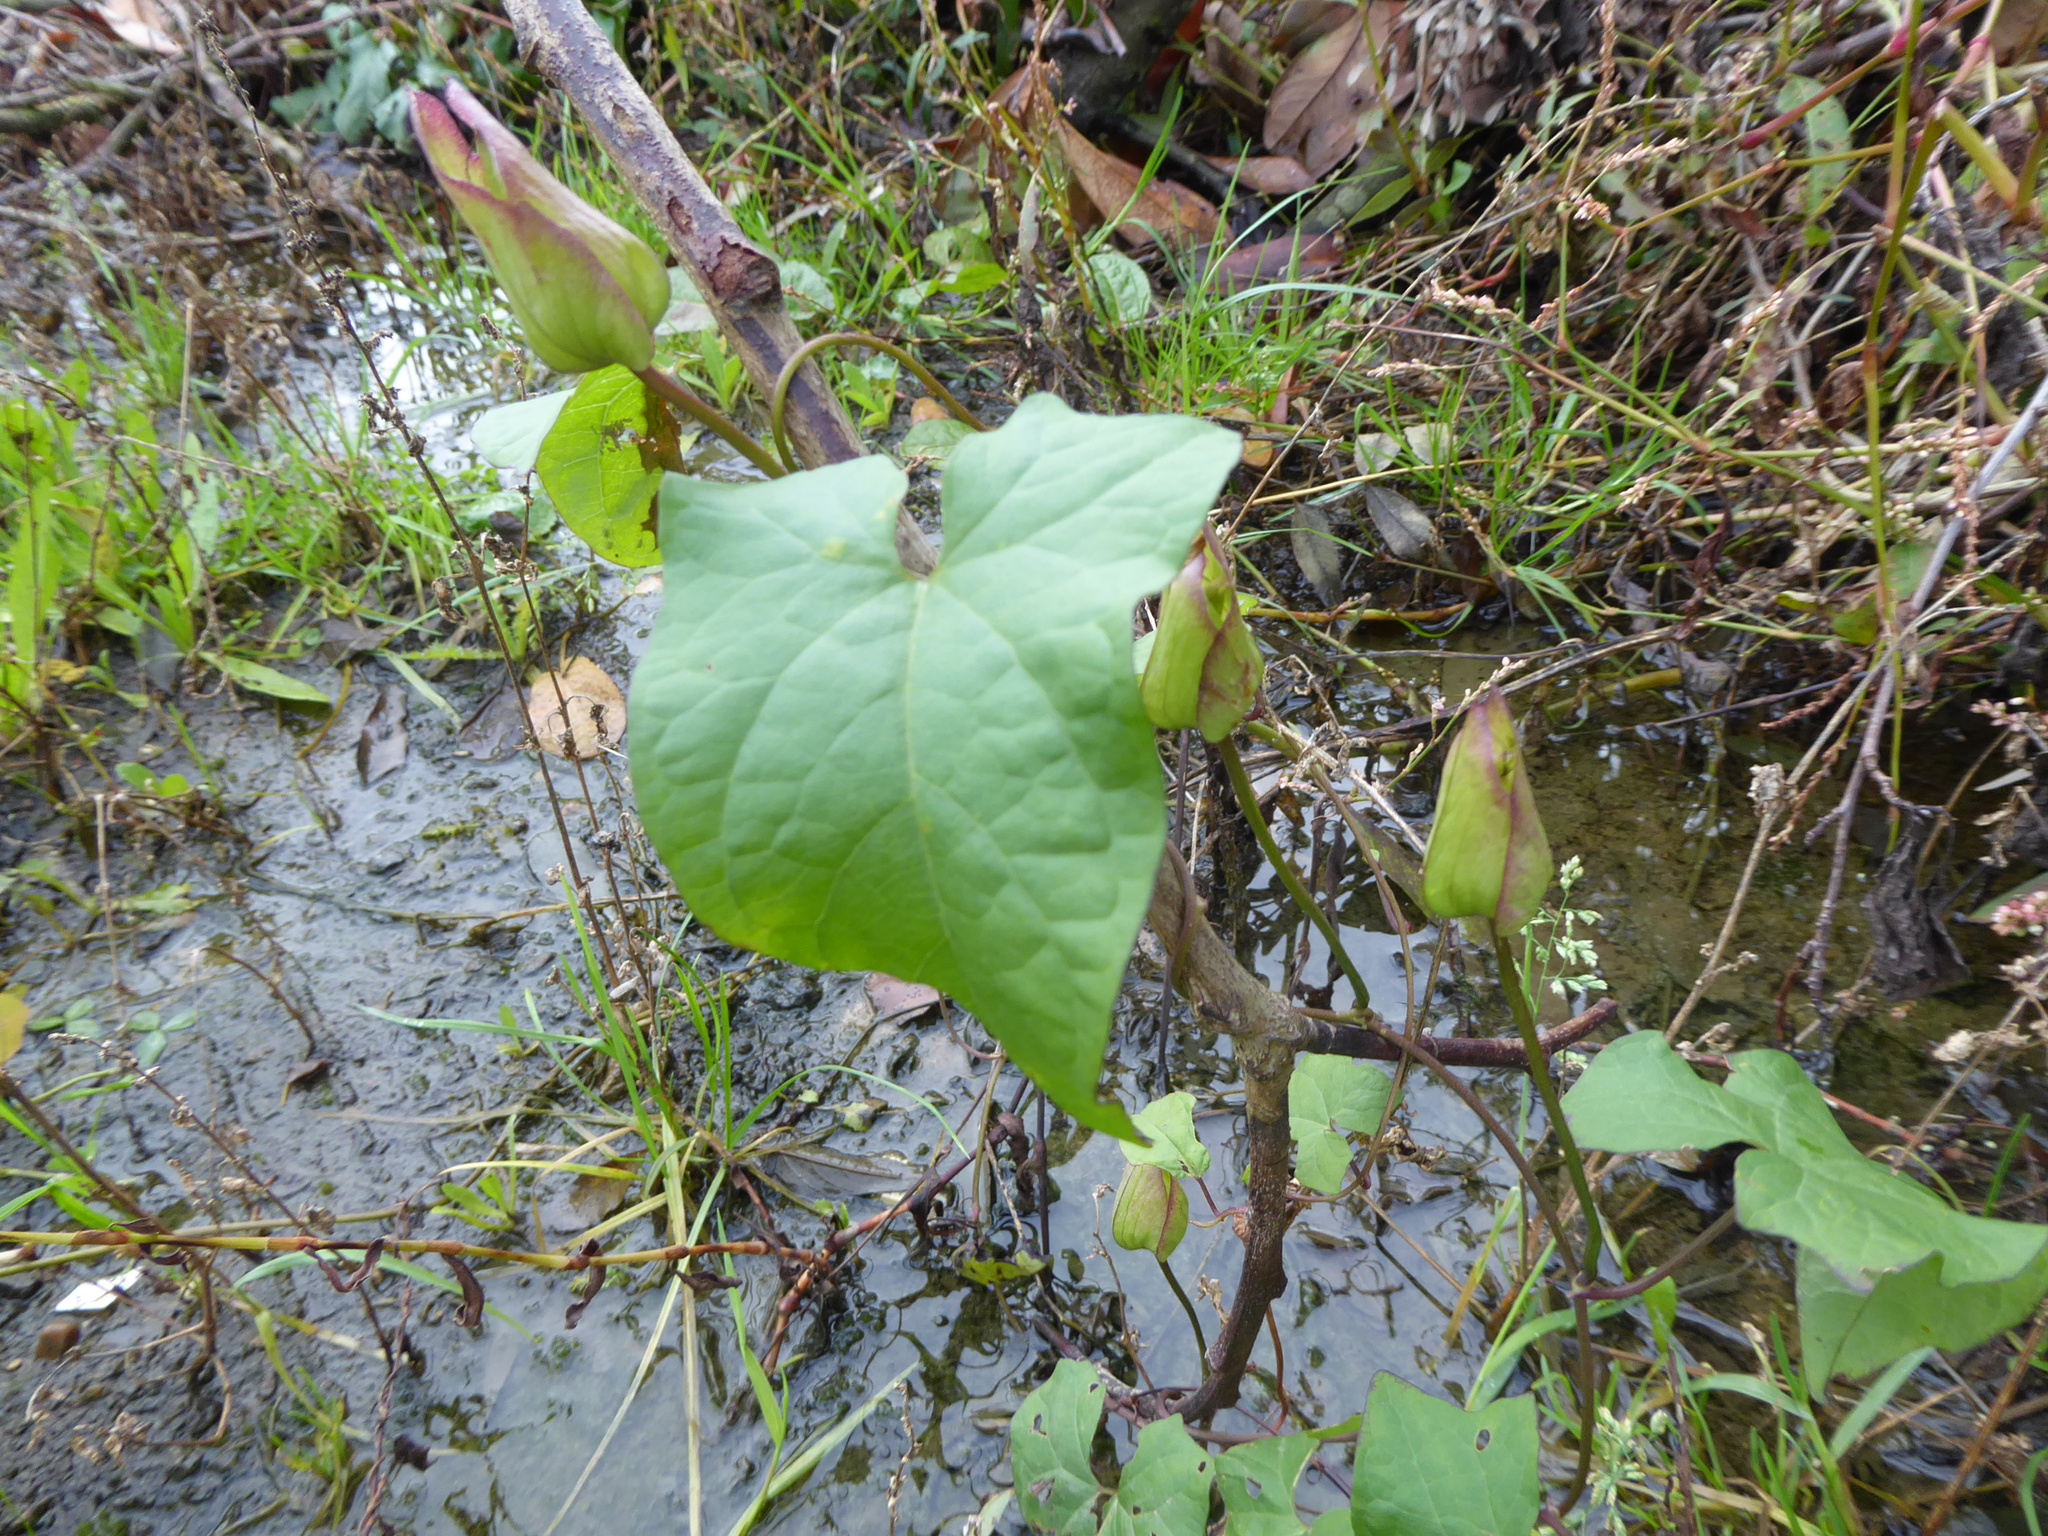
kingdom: Plantae
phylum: Tracheophyta
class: Magnoliopsida
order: Solanales
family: Convolvulaceae
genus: Calystegia
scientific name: Calystegia silvatica
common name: Large bindweed
